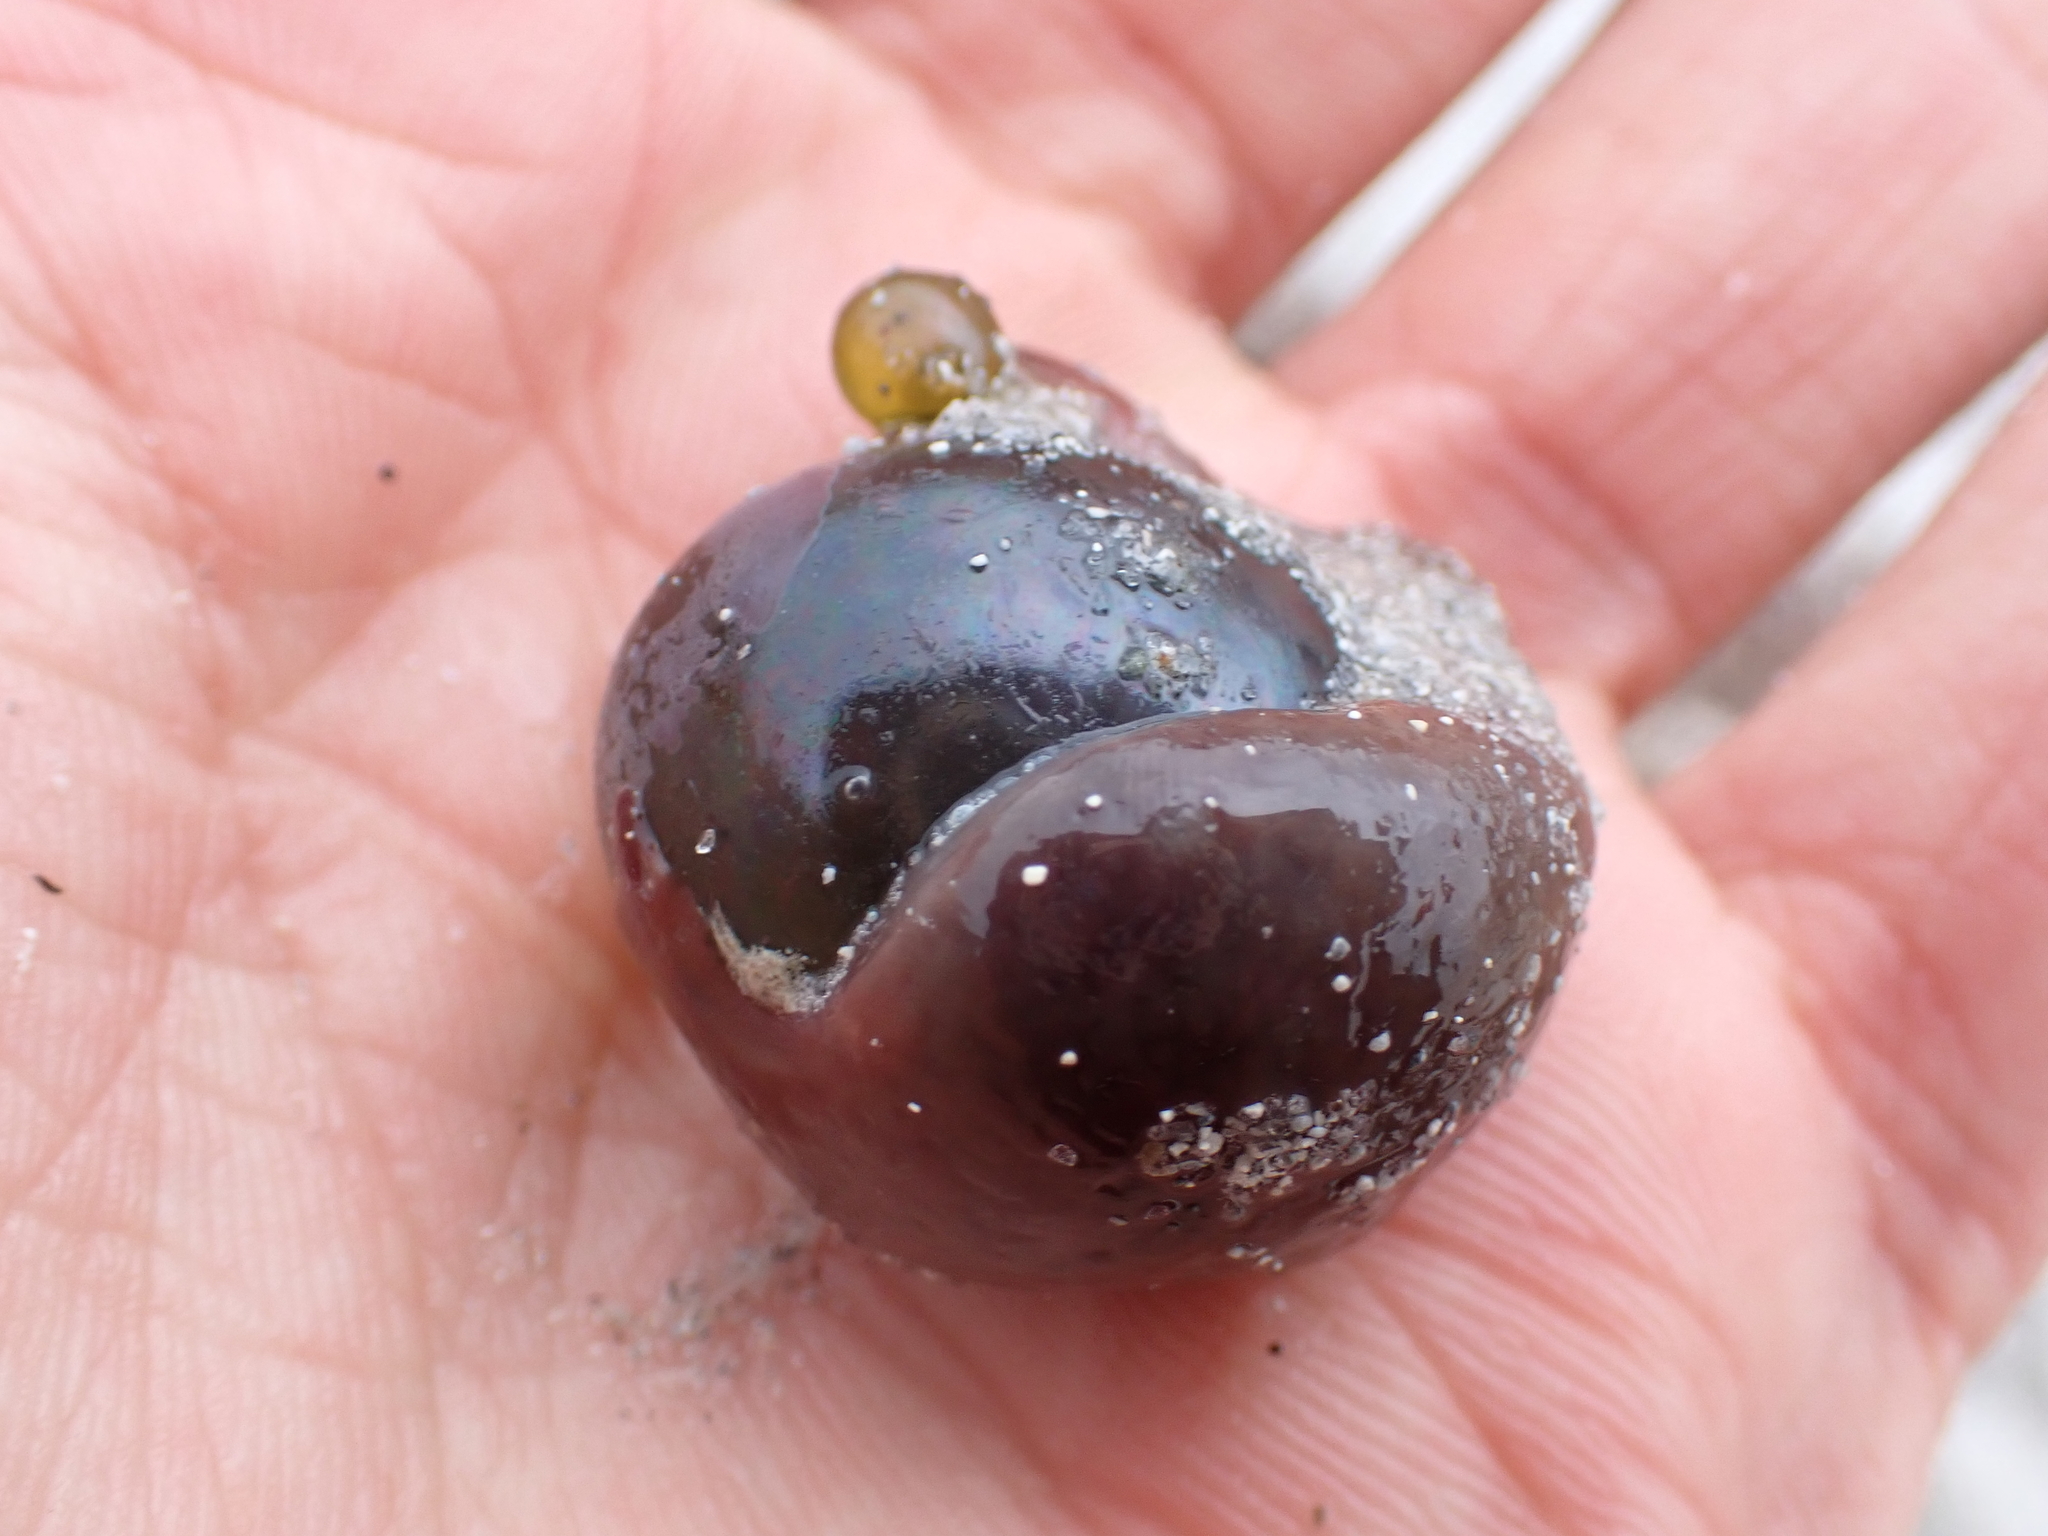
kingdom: Plantae
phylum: Chlorophyta
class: Ulvophyceae
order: Siphonocladales
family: Valoniaceae
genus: Valonia
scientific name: Valonia ventricosa
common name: Sea pearl
